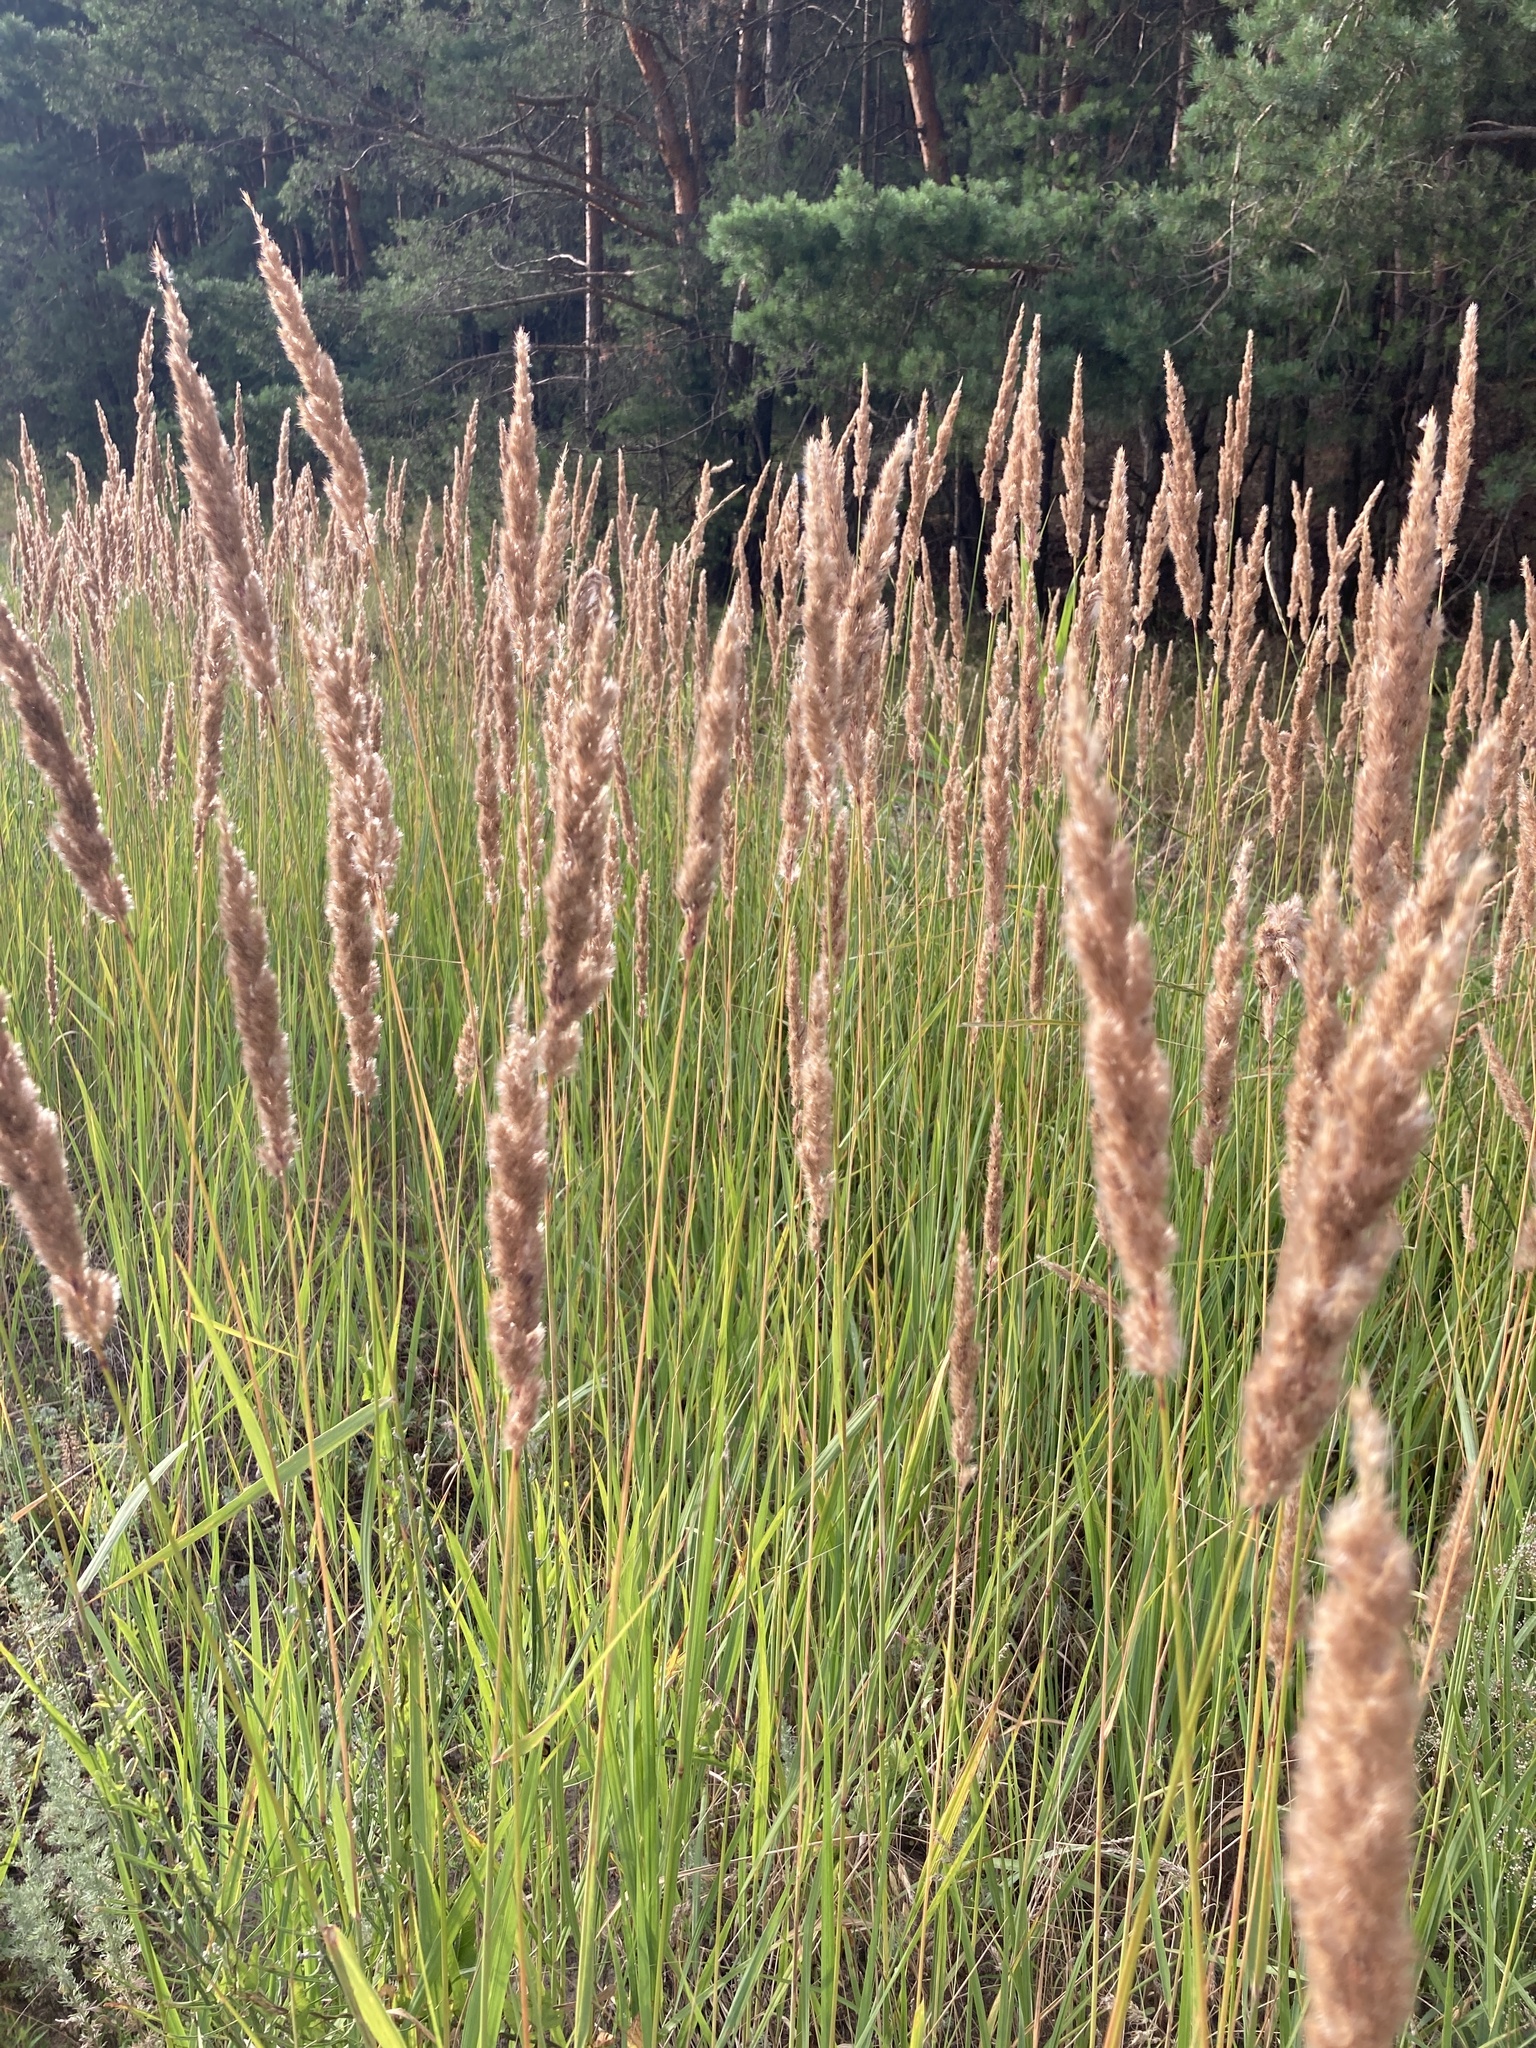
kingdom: Plantae
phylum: Tracheophyta
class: Liliopsida
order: Poales
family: Poaceae
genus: Calamagrostis
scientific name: Calamagrostis epigejos
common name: Wood small-reed
